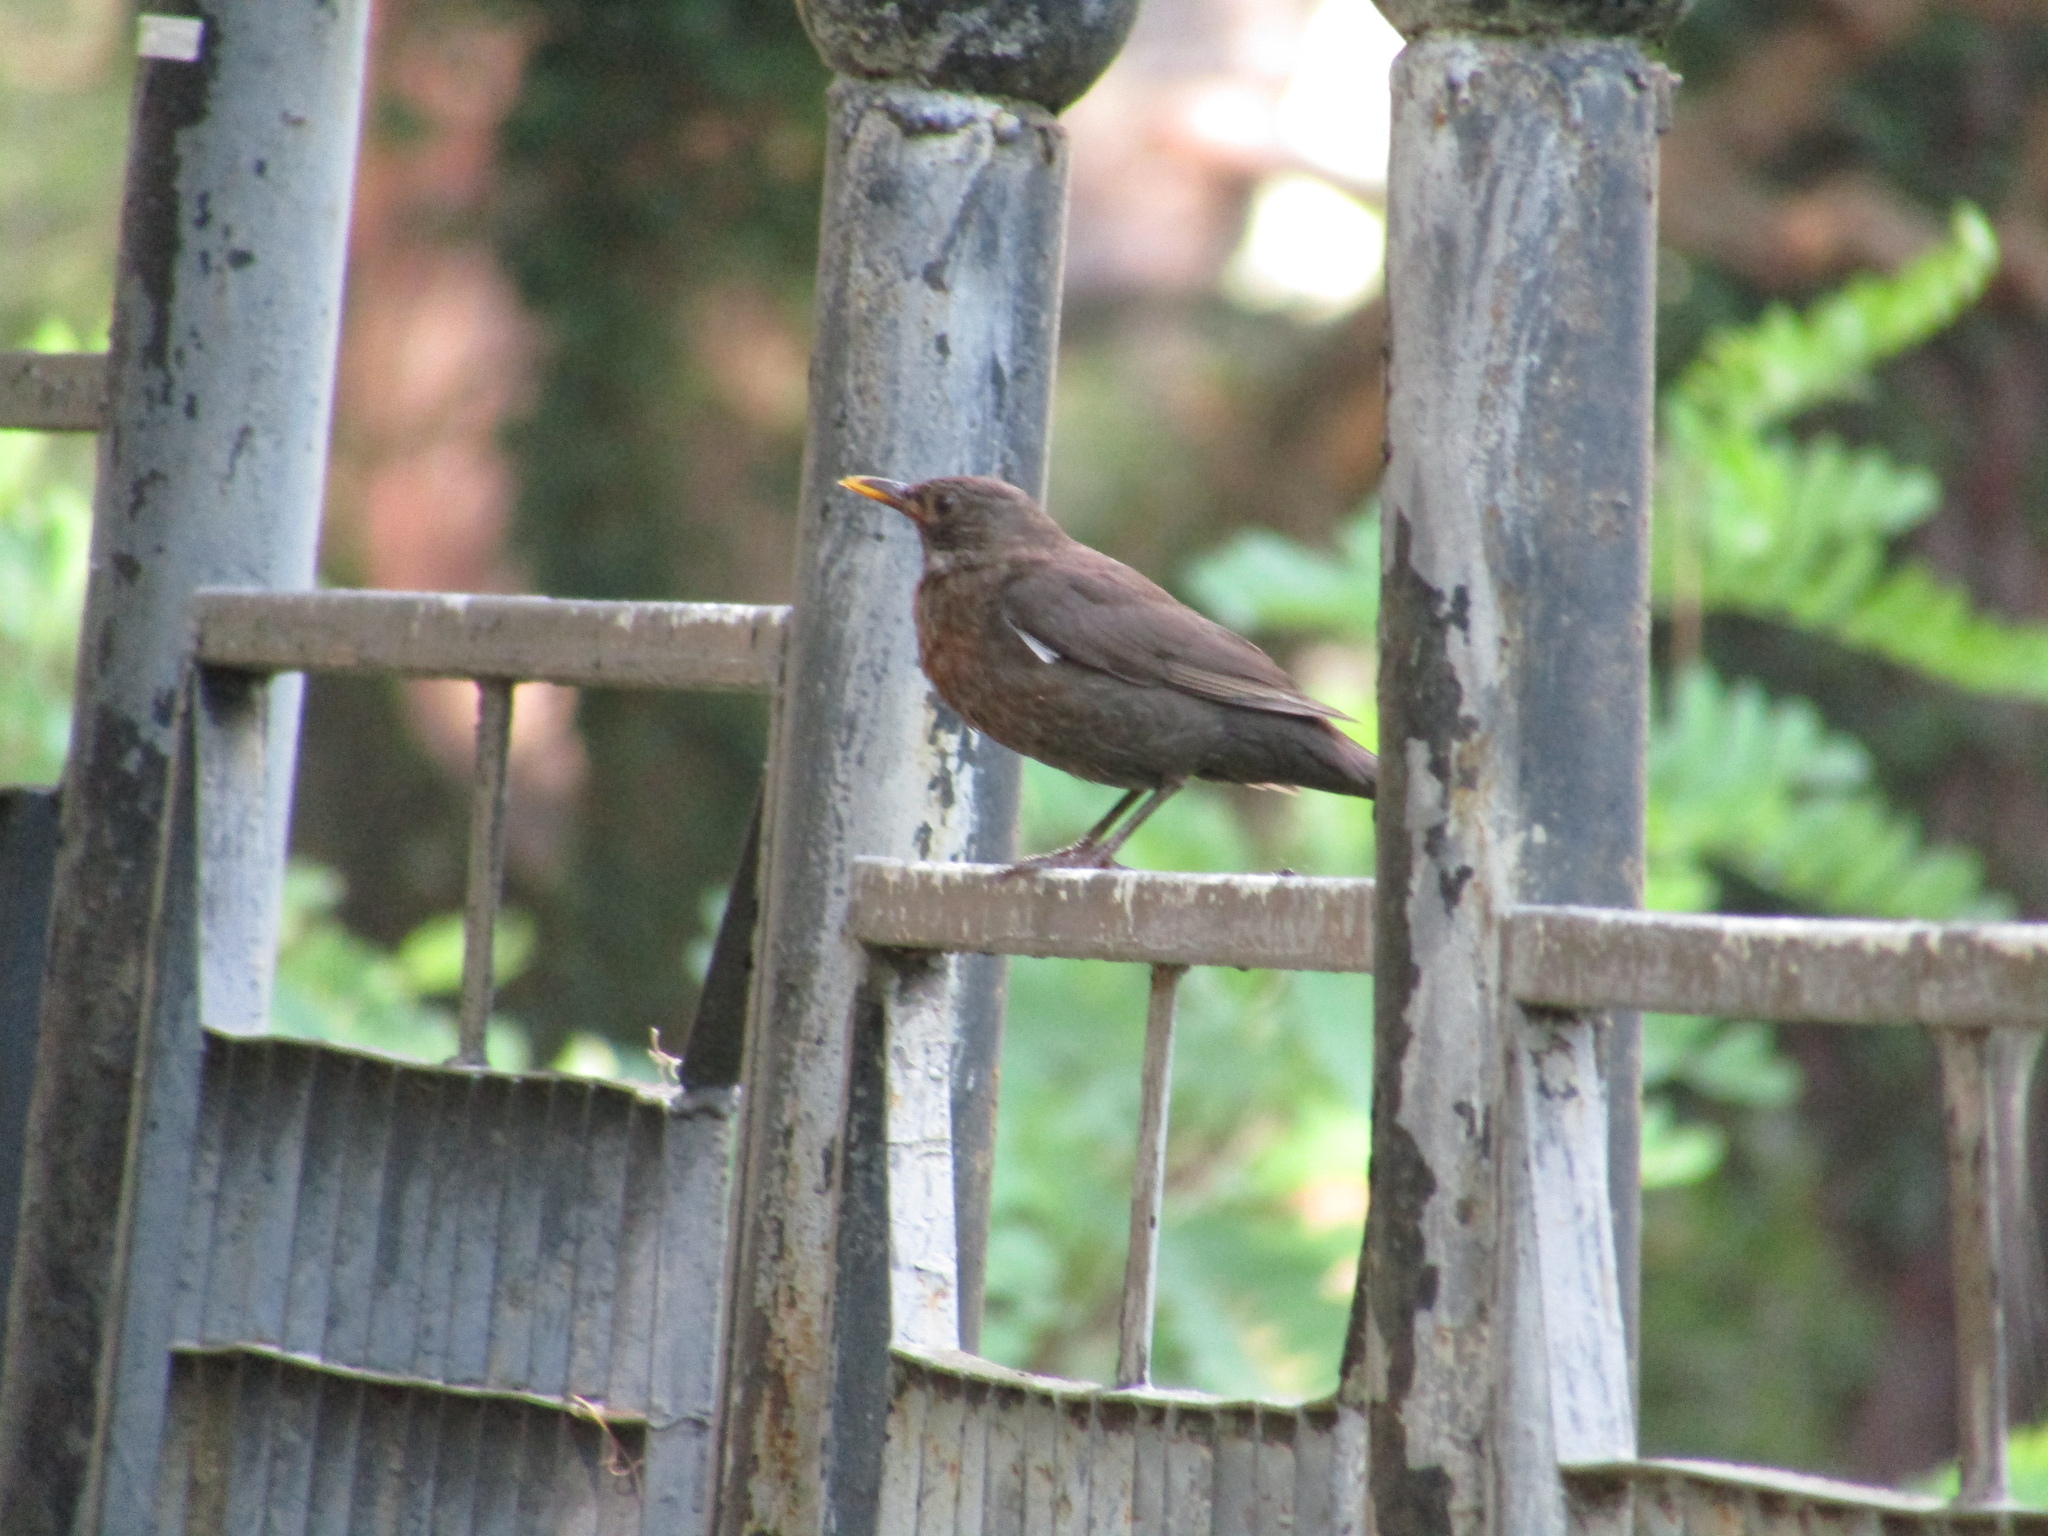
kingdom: Animalia
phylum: Chordata
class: Aves
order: Passeriformes
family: Turdidae
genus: Turdus
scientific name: Turdus merula
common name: Common blackbird
